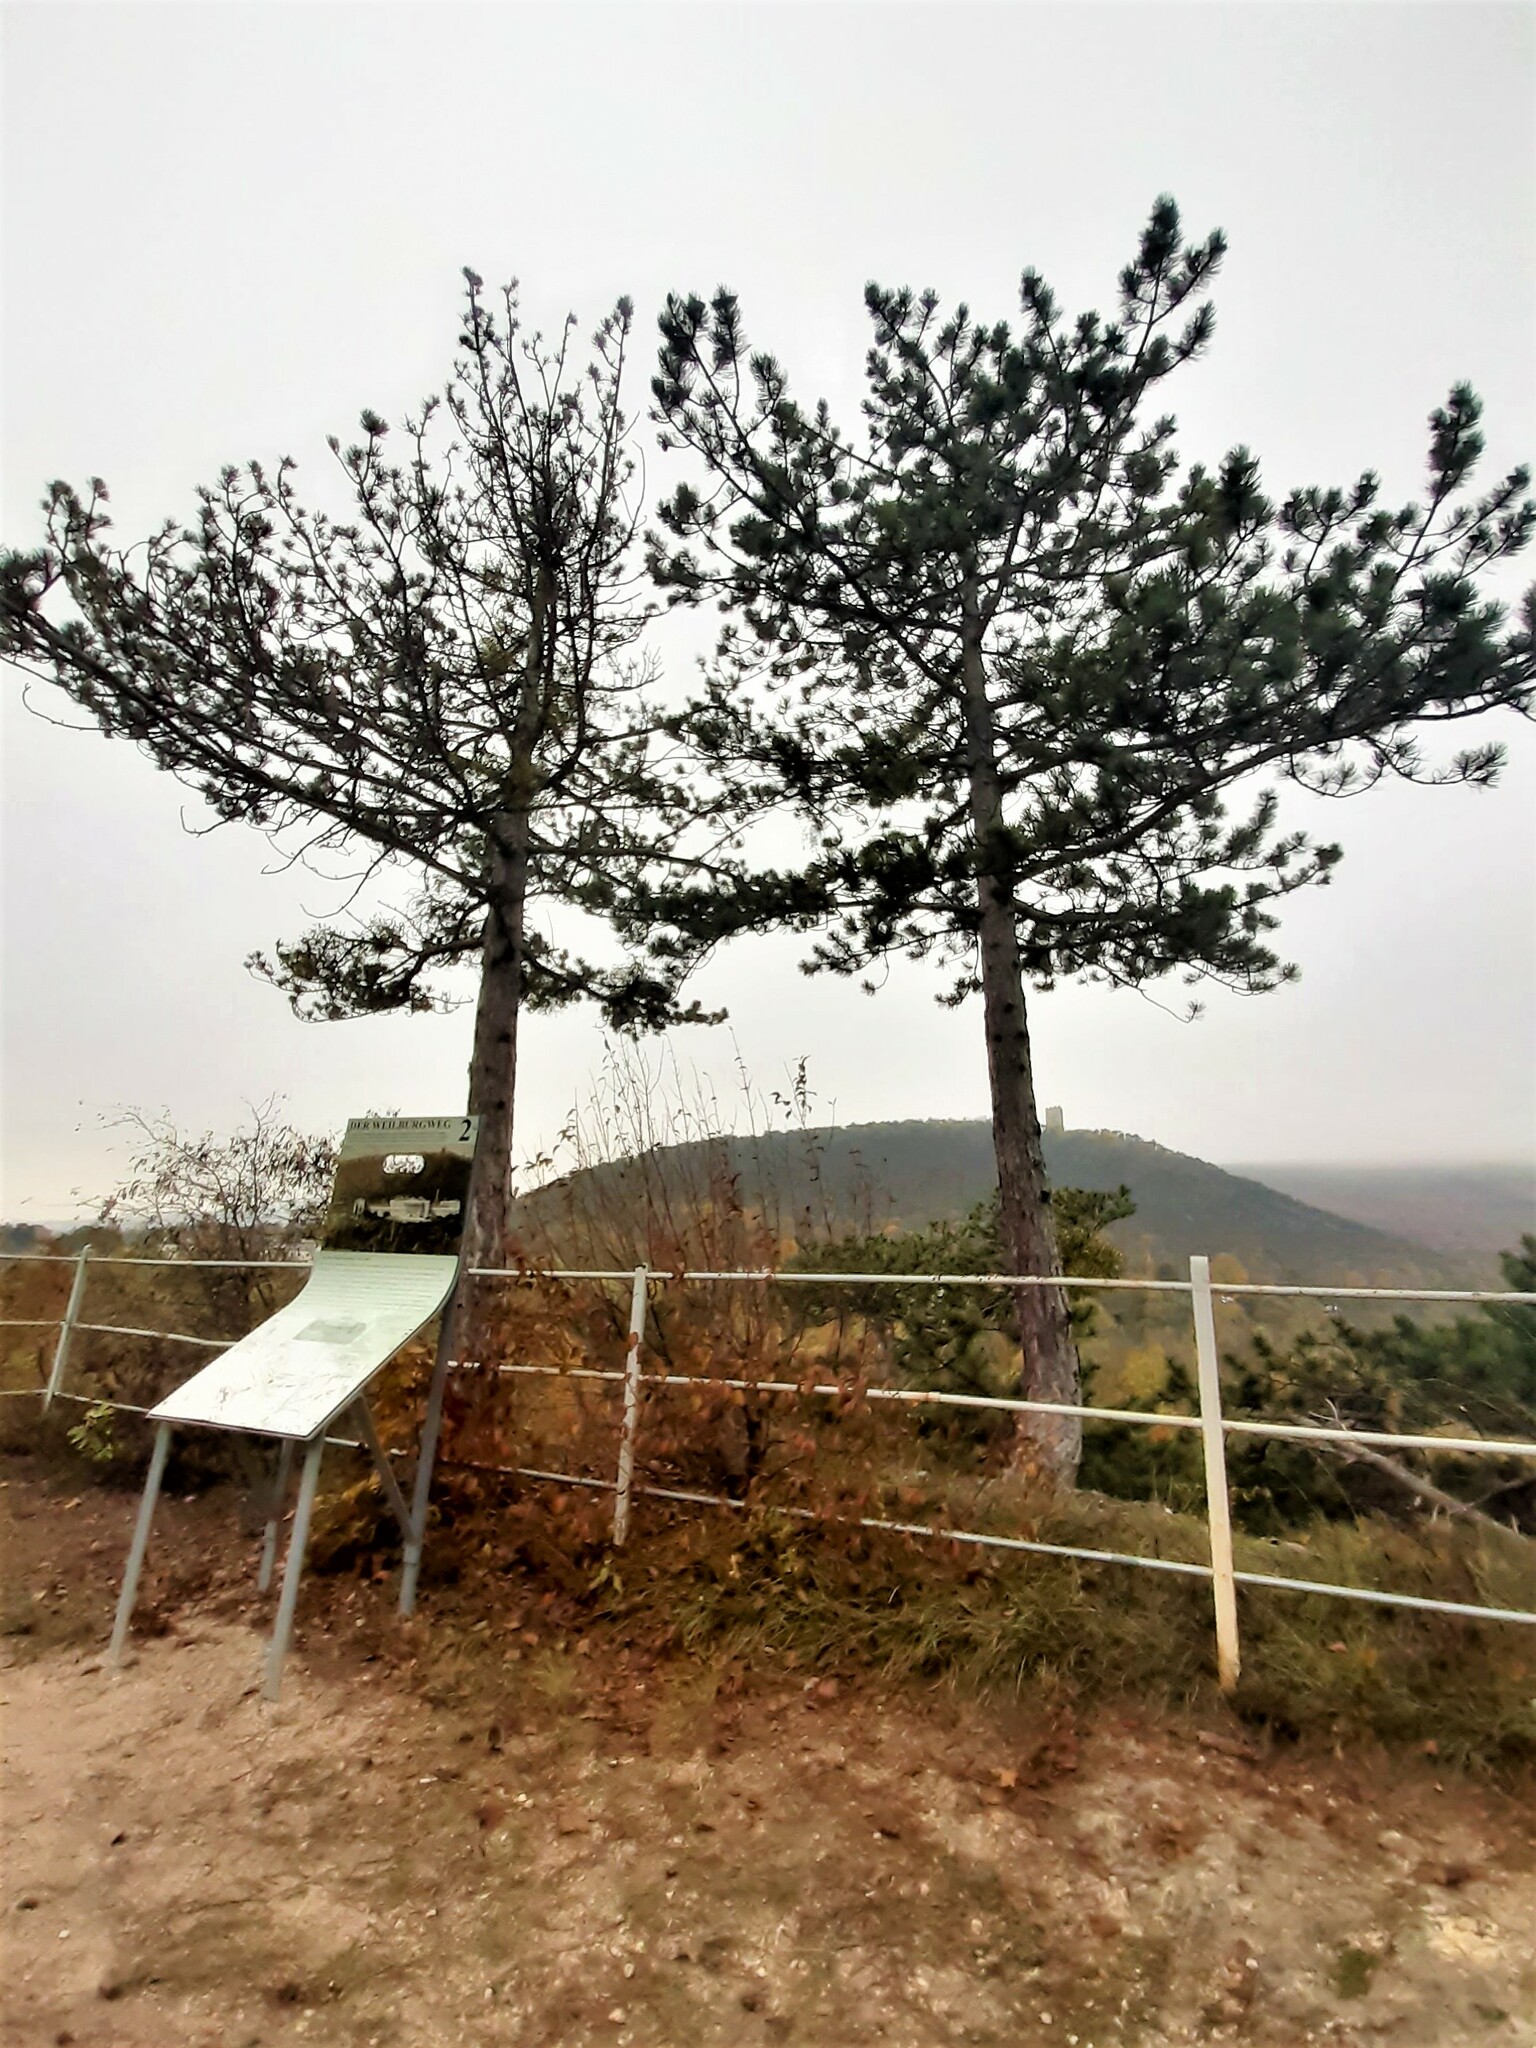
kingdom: Plantae
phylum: Tracheophyta
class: Pinopsida
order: Pinales
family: Pinaceae
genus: Pinus
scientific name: Pinus nigra
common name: Austrian pine
